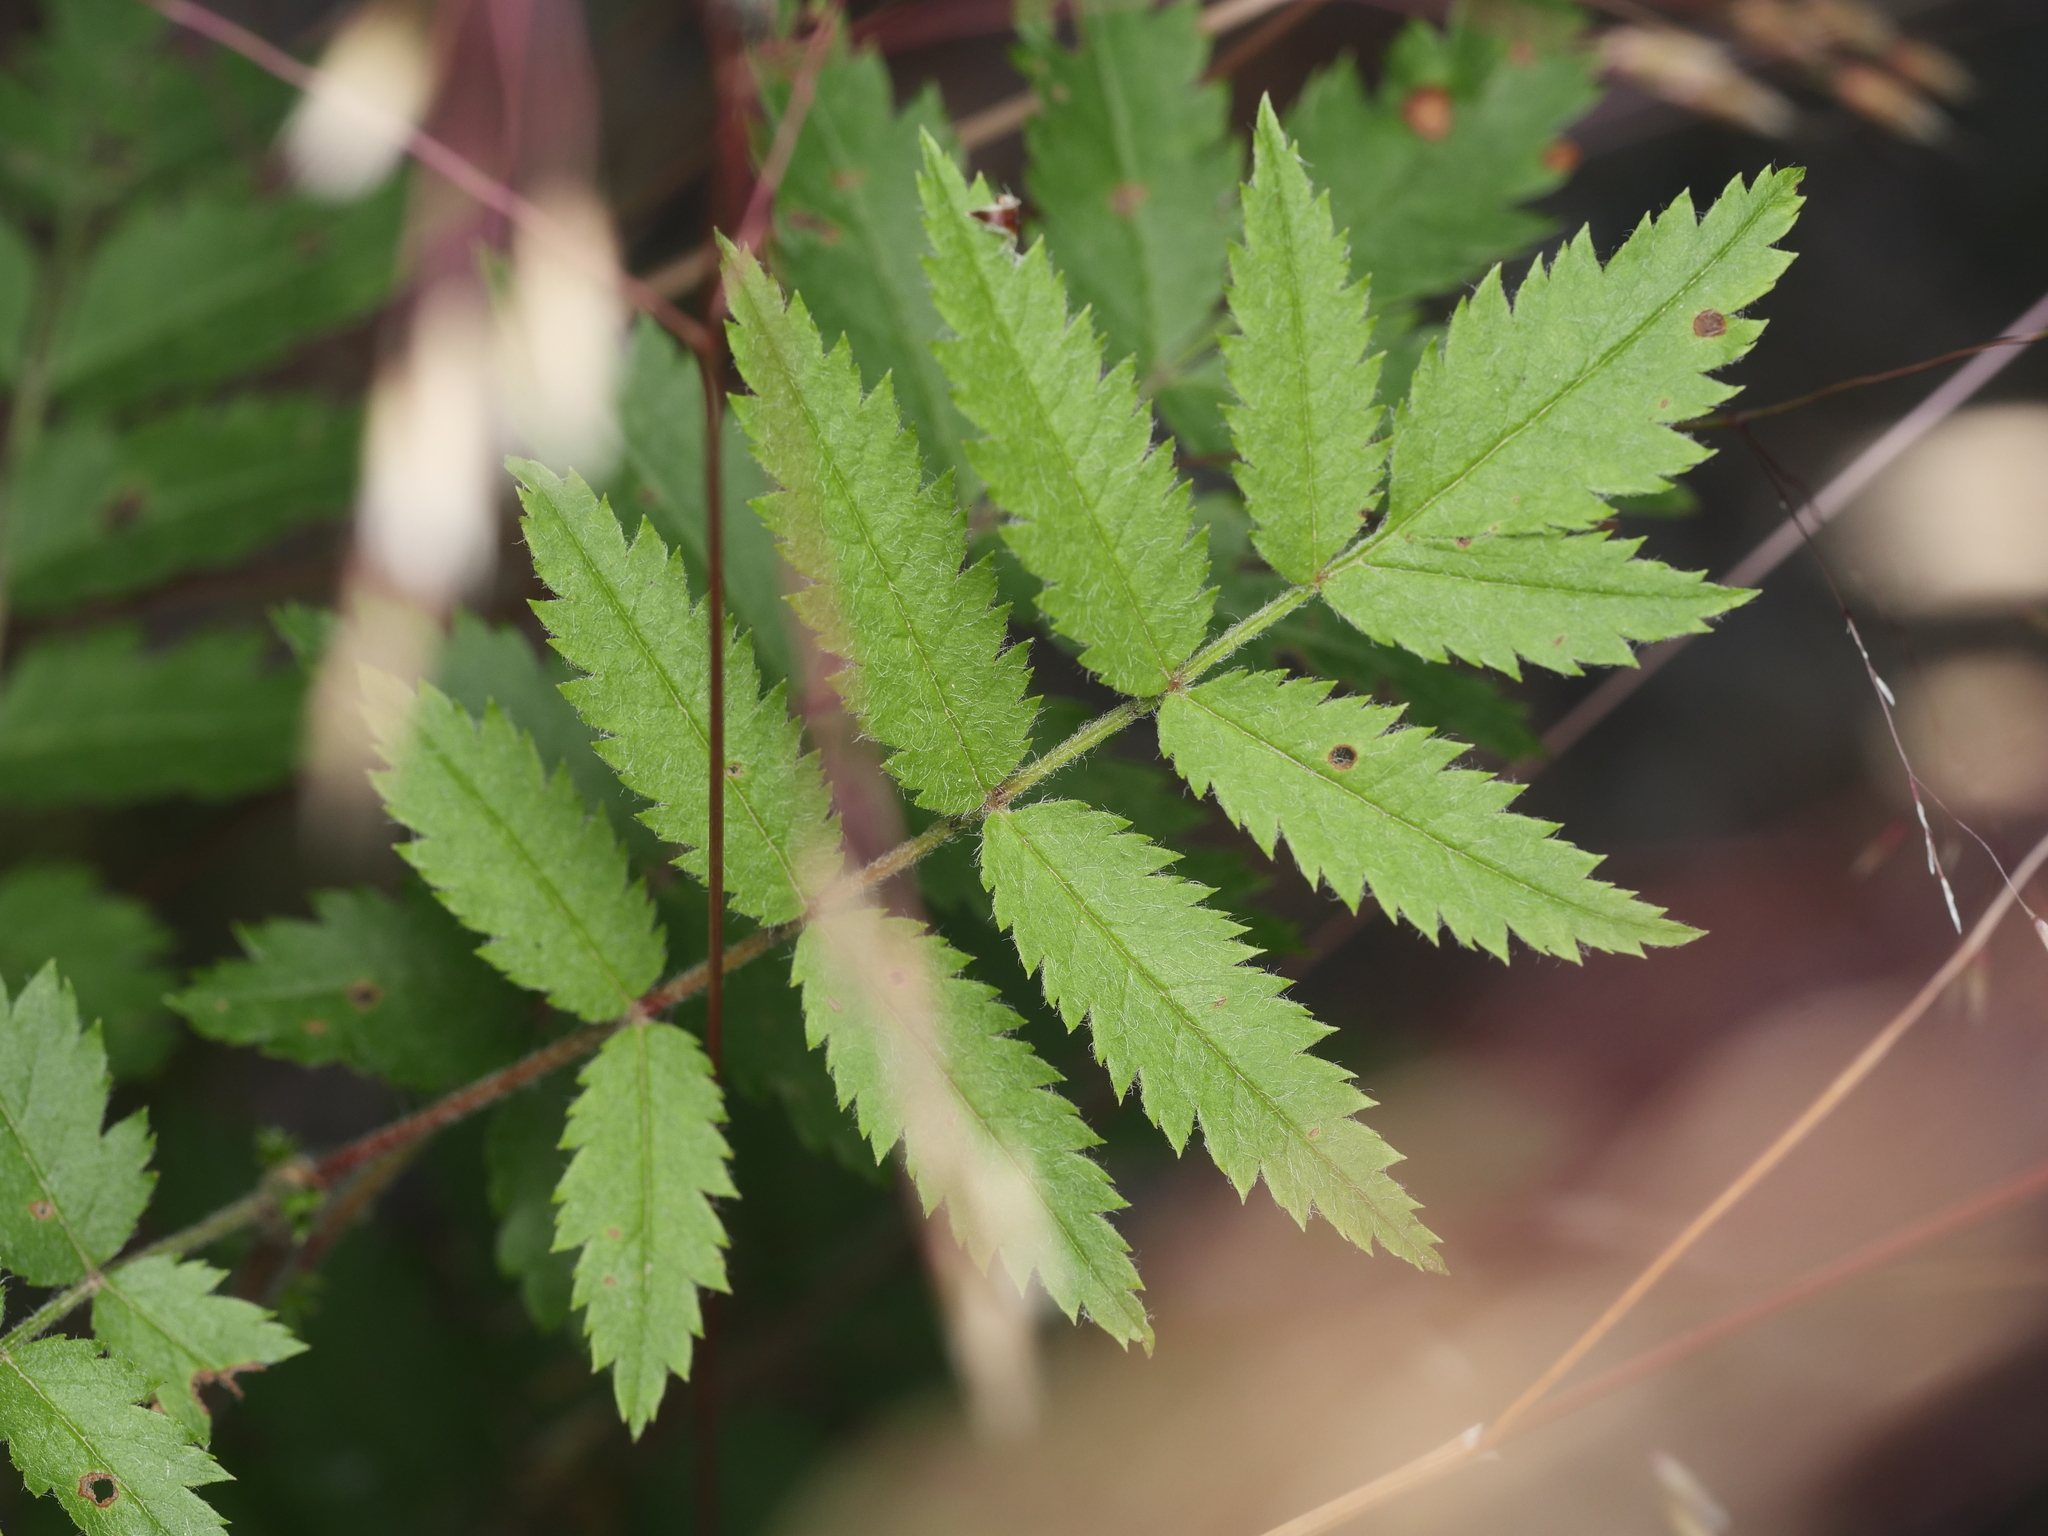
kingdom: Plantae
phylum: Tracheophyta
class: Magnoliopsida
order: Rosales
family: Rosaceae
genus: Sorbus
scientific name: Sorbus aucuparia
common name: Rowan
